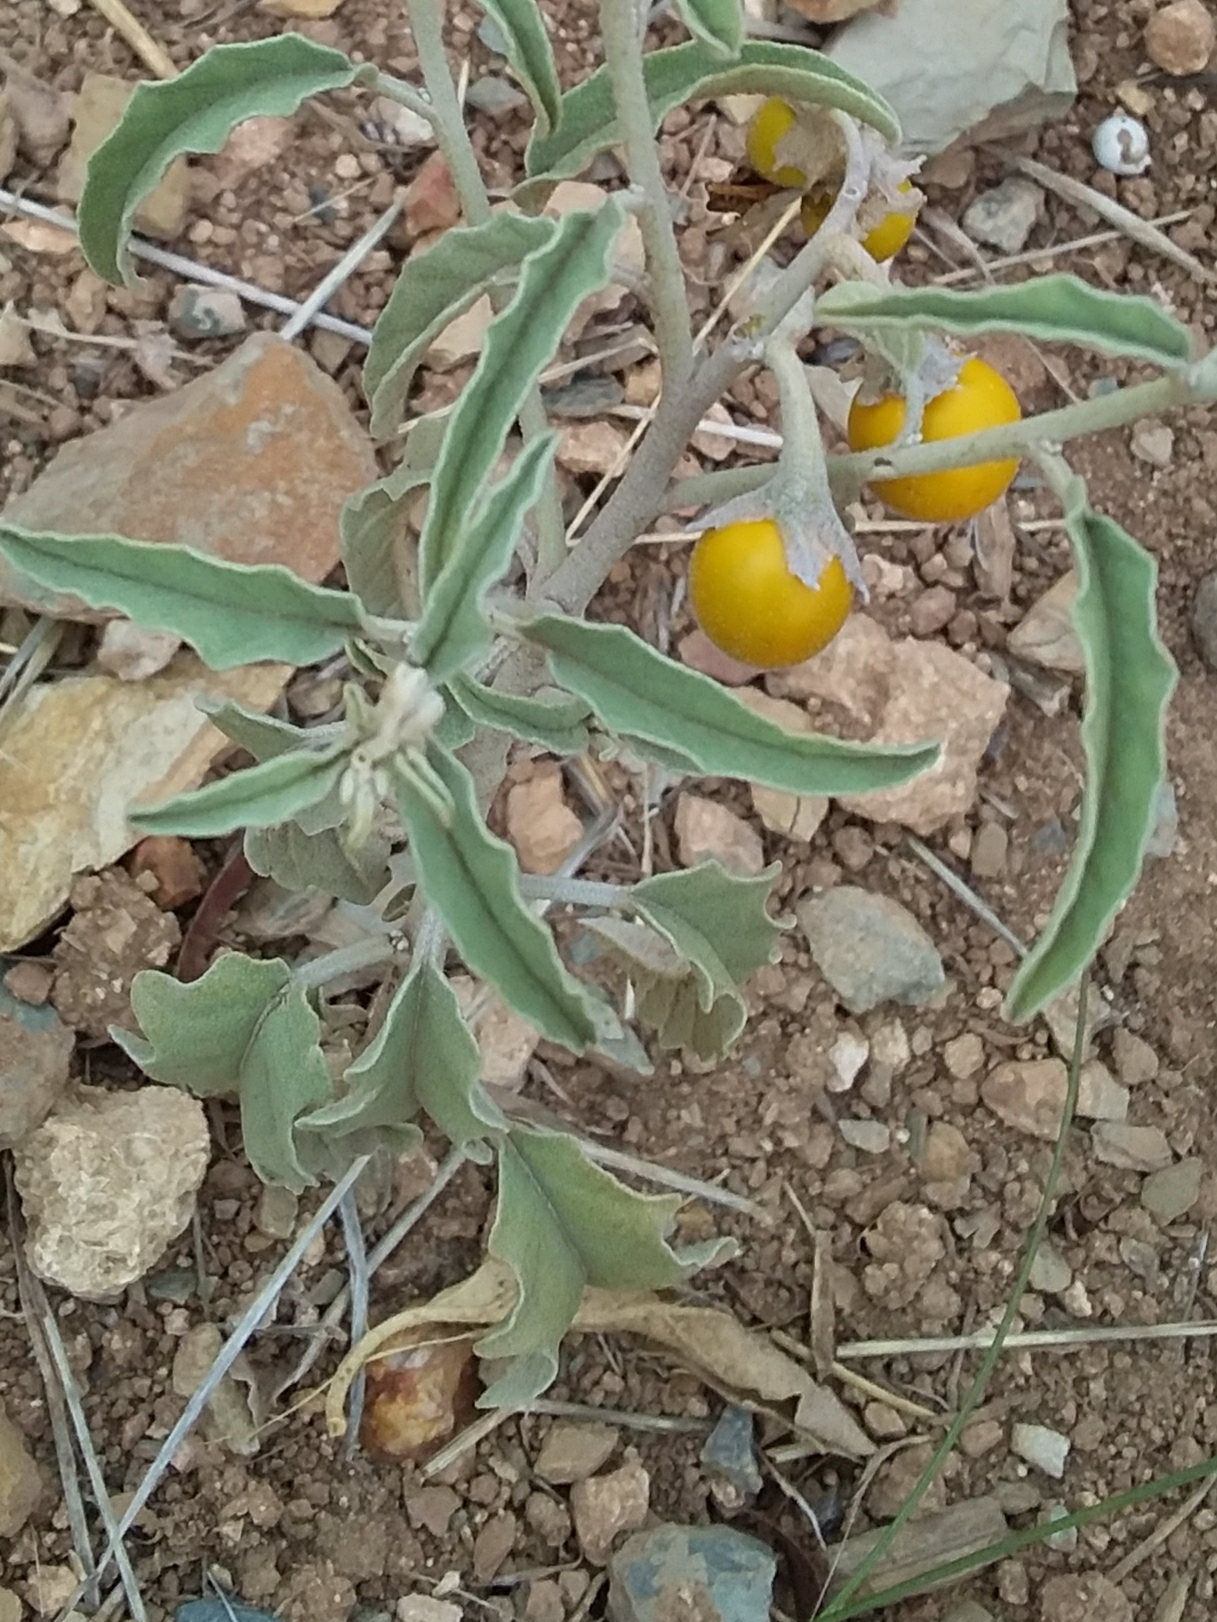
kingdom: Plantae
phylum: Tracheophyta
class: Magnoliopsida
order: Solanales
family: Solanaceae
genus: Solanum
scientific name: Solanum elaeagnifolium
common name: Silverleaf nightshade
